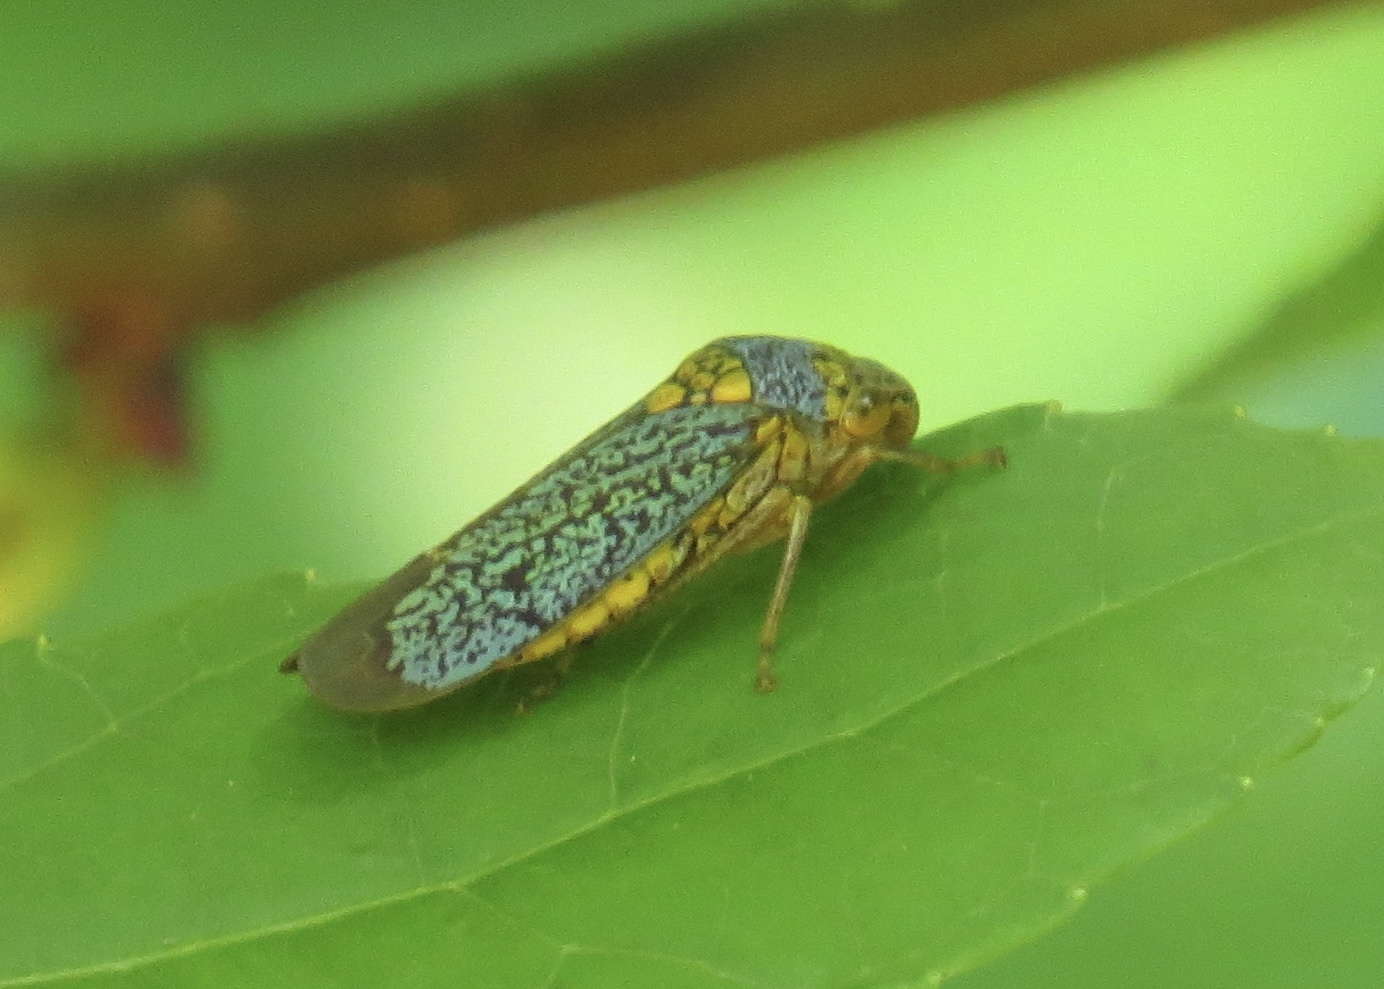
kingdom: Animalia
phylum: Arthropoda
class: Insecta
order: Hemiptera
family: Cicadellidae
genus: Oncometopia
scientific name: Oncometopia orbona
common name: Broad-headed sharpshooter
